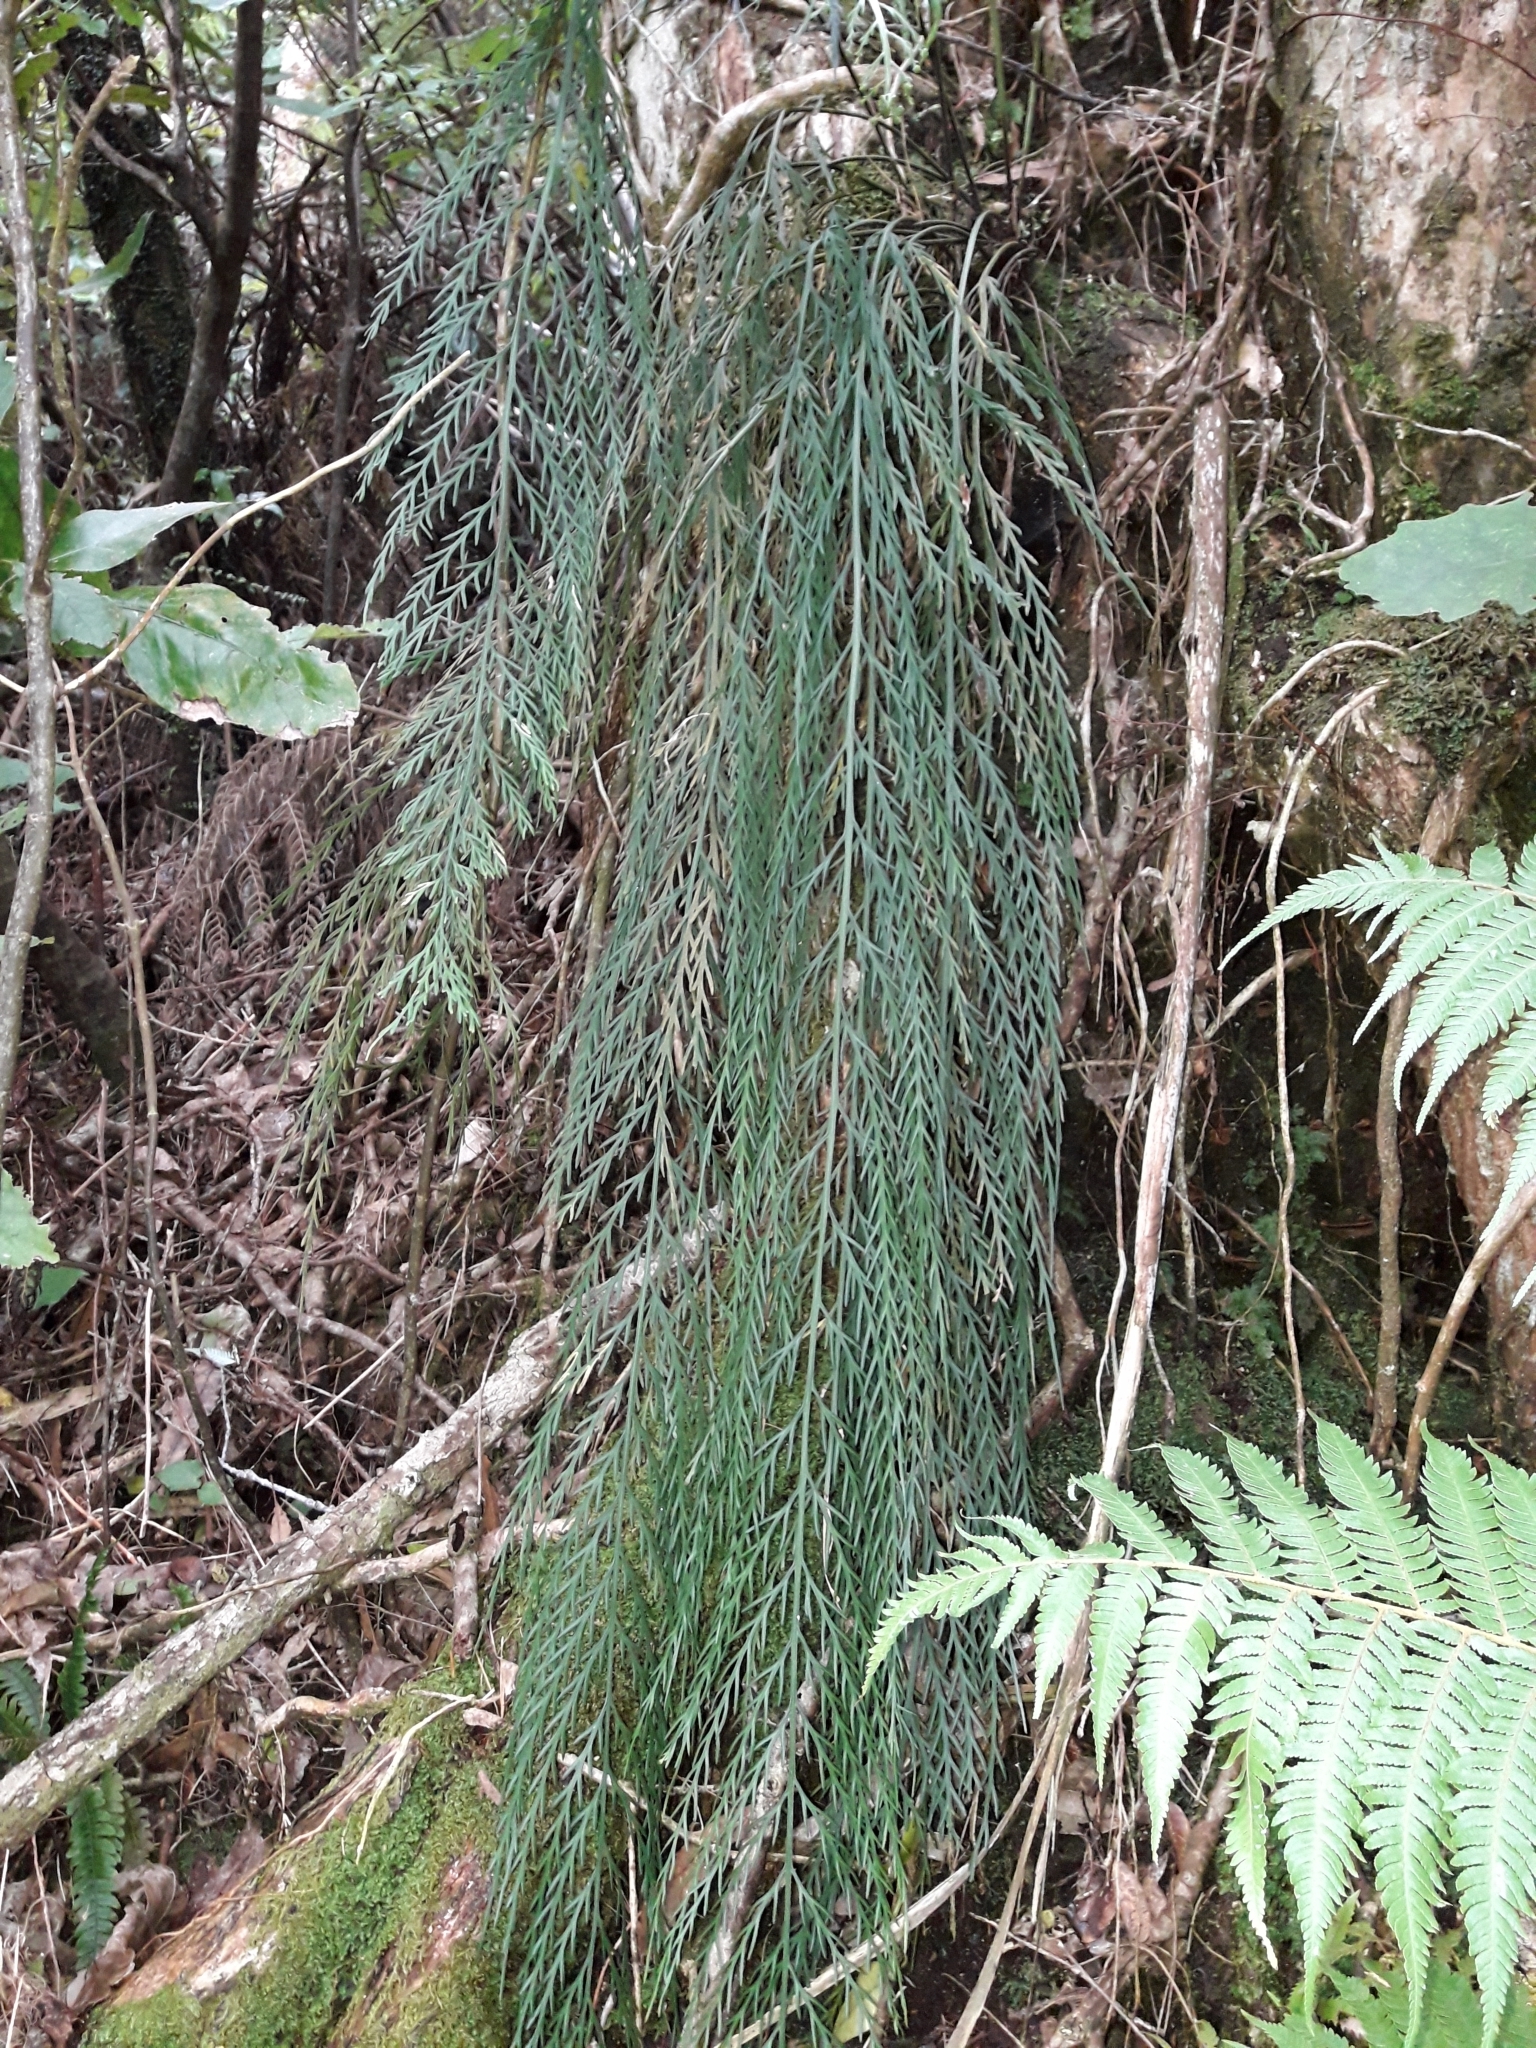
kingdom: Plantae
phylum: Tracheophyta
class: Polypodiopsida
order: Polypodiales
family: Aspleniaceae
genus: Asplenium
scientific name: Asplenium flaccidum
